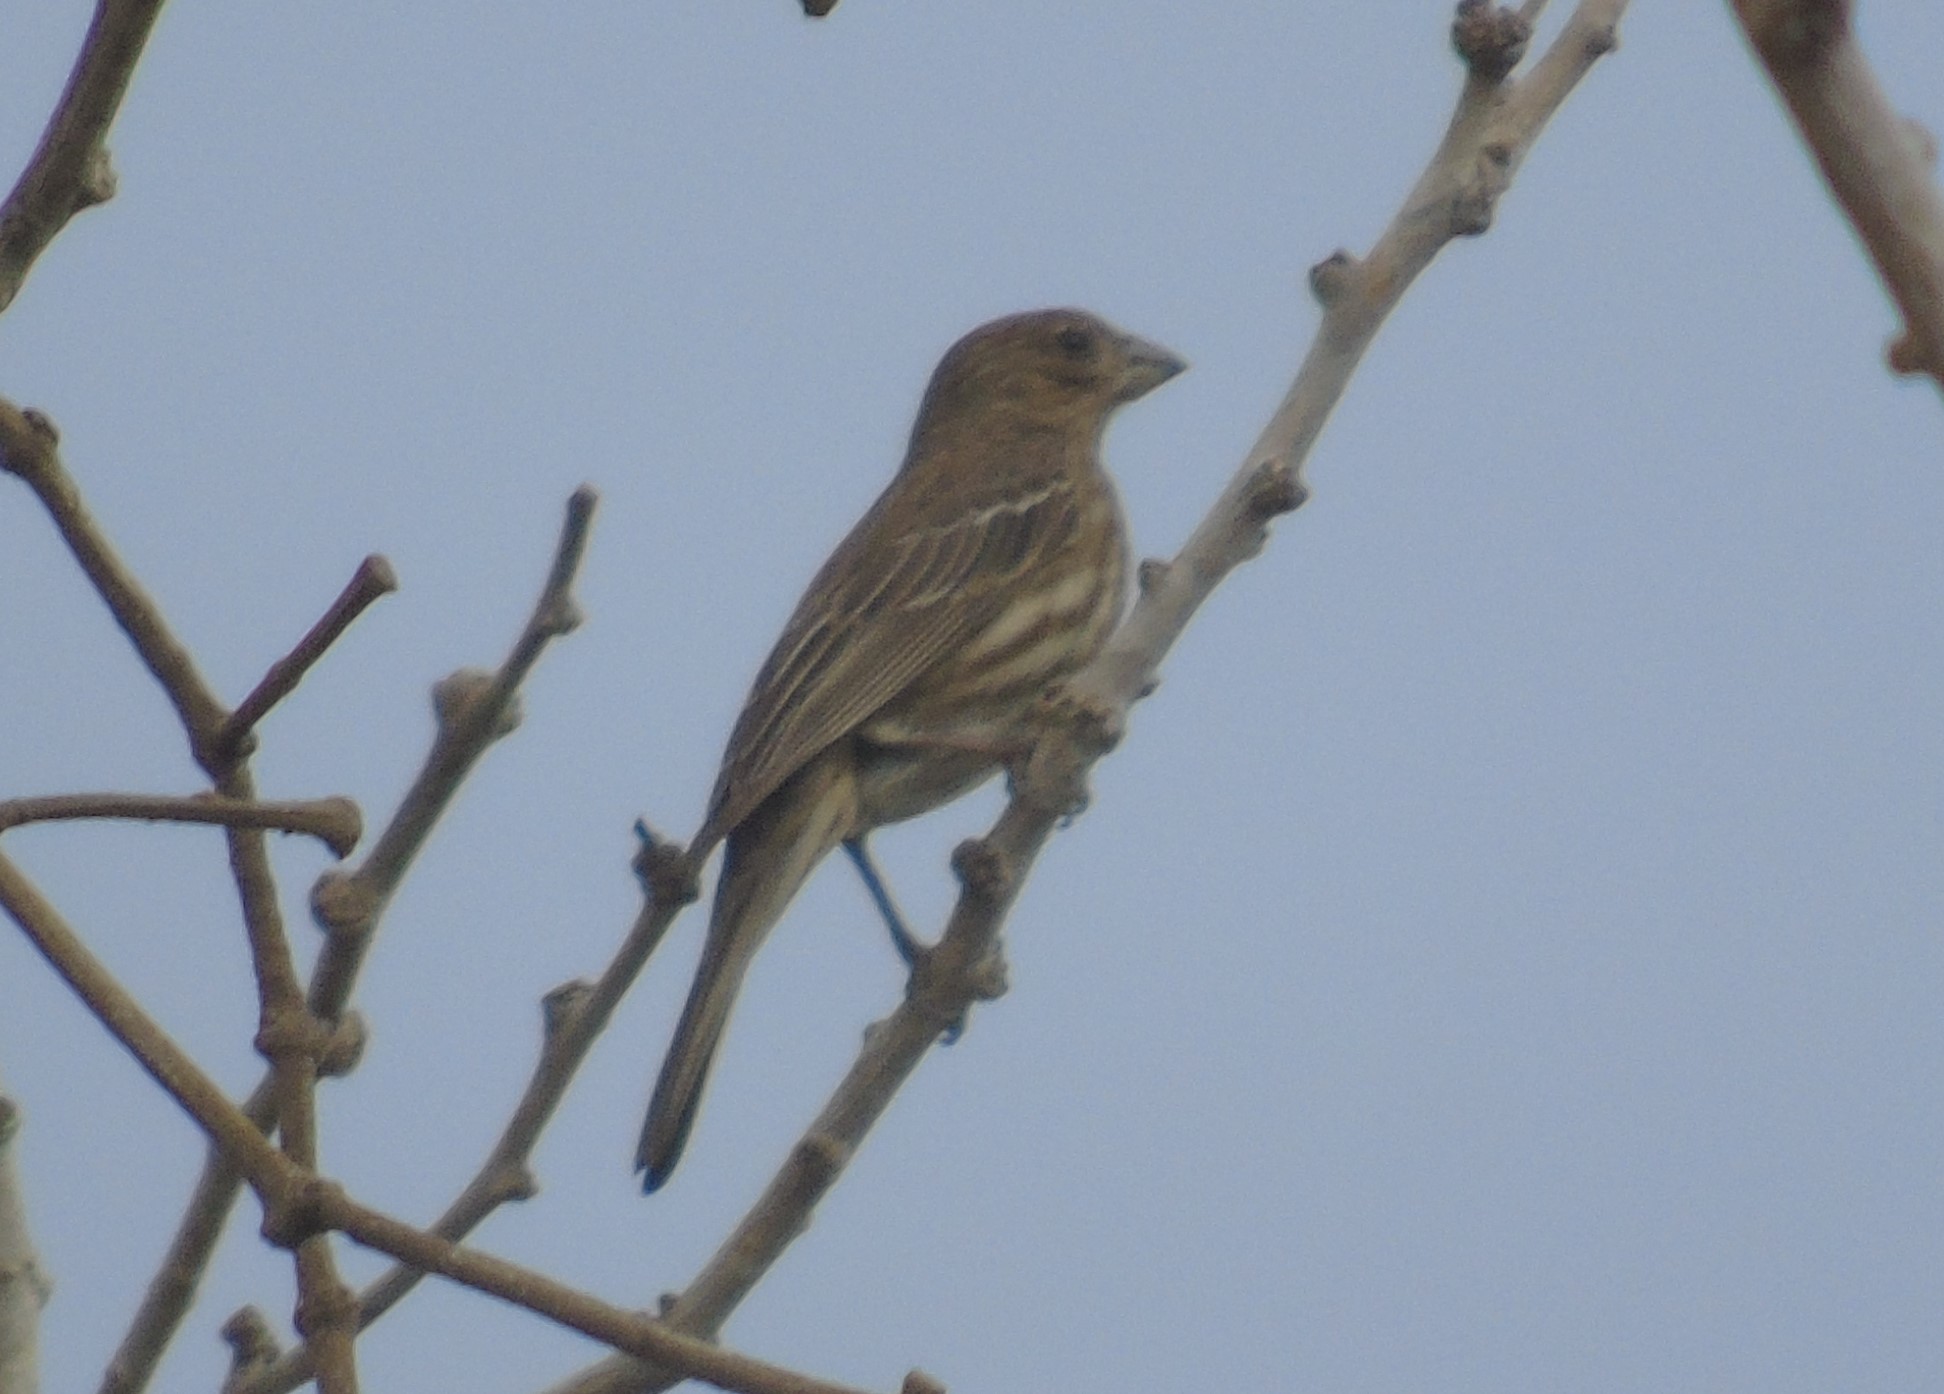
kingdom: Animalia
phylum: Chordata
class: Aves
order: Passeriformes
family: Fringillidae
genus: Haemorhous
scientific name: Haemorhous mexicanus
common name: House finch
